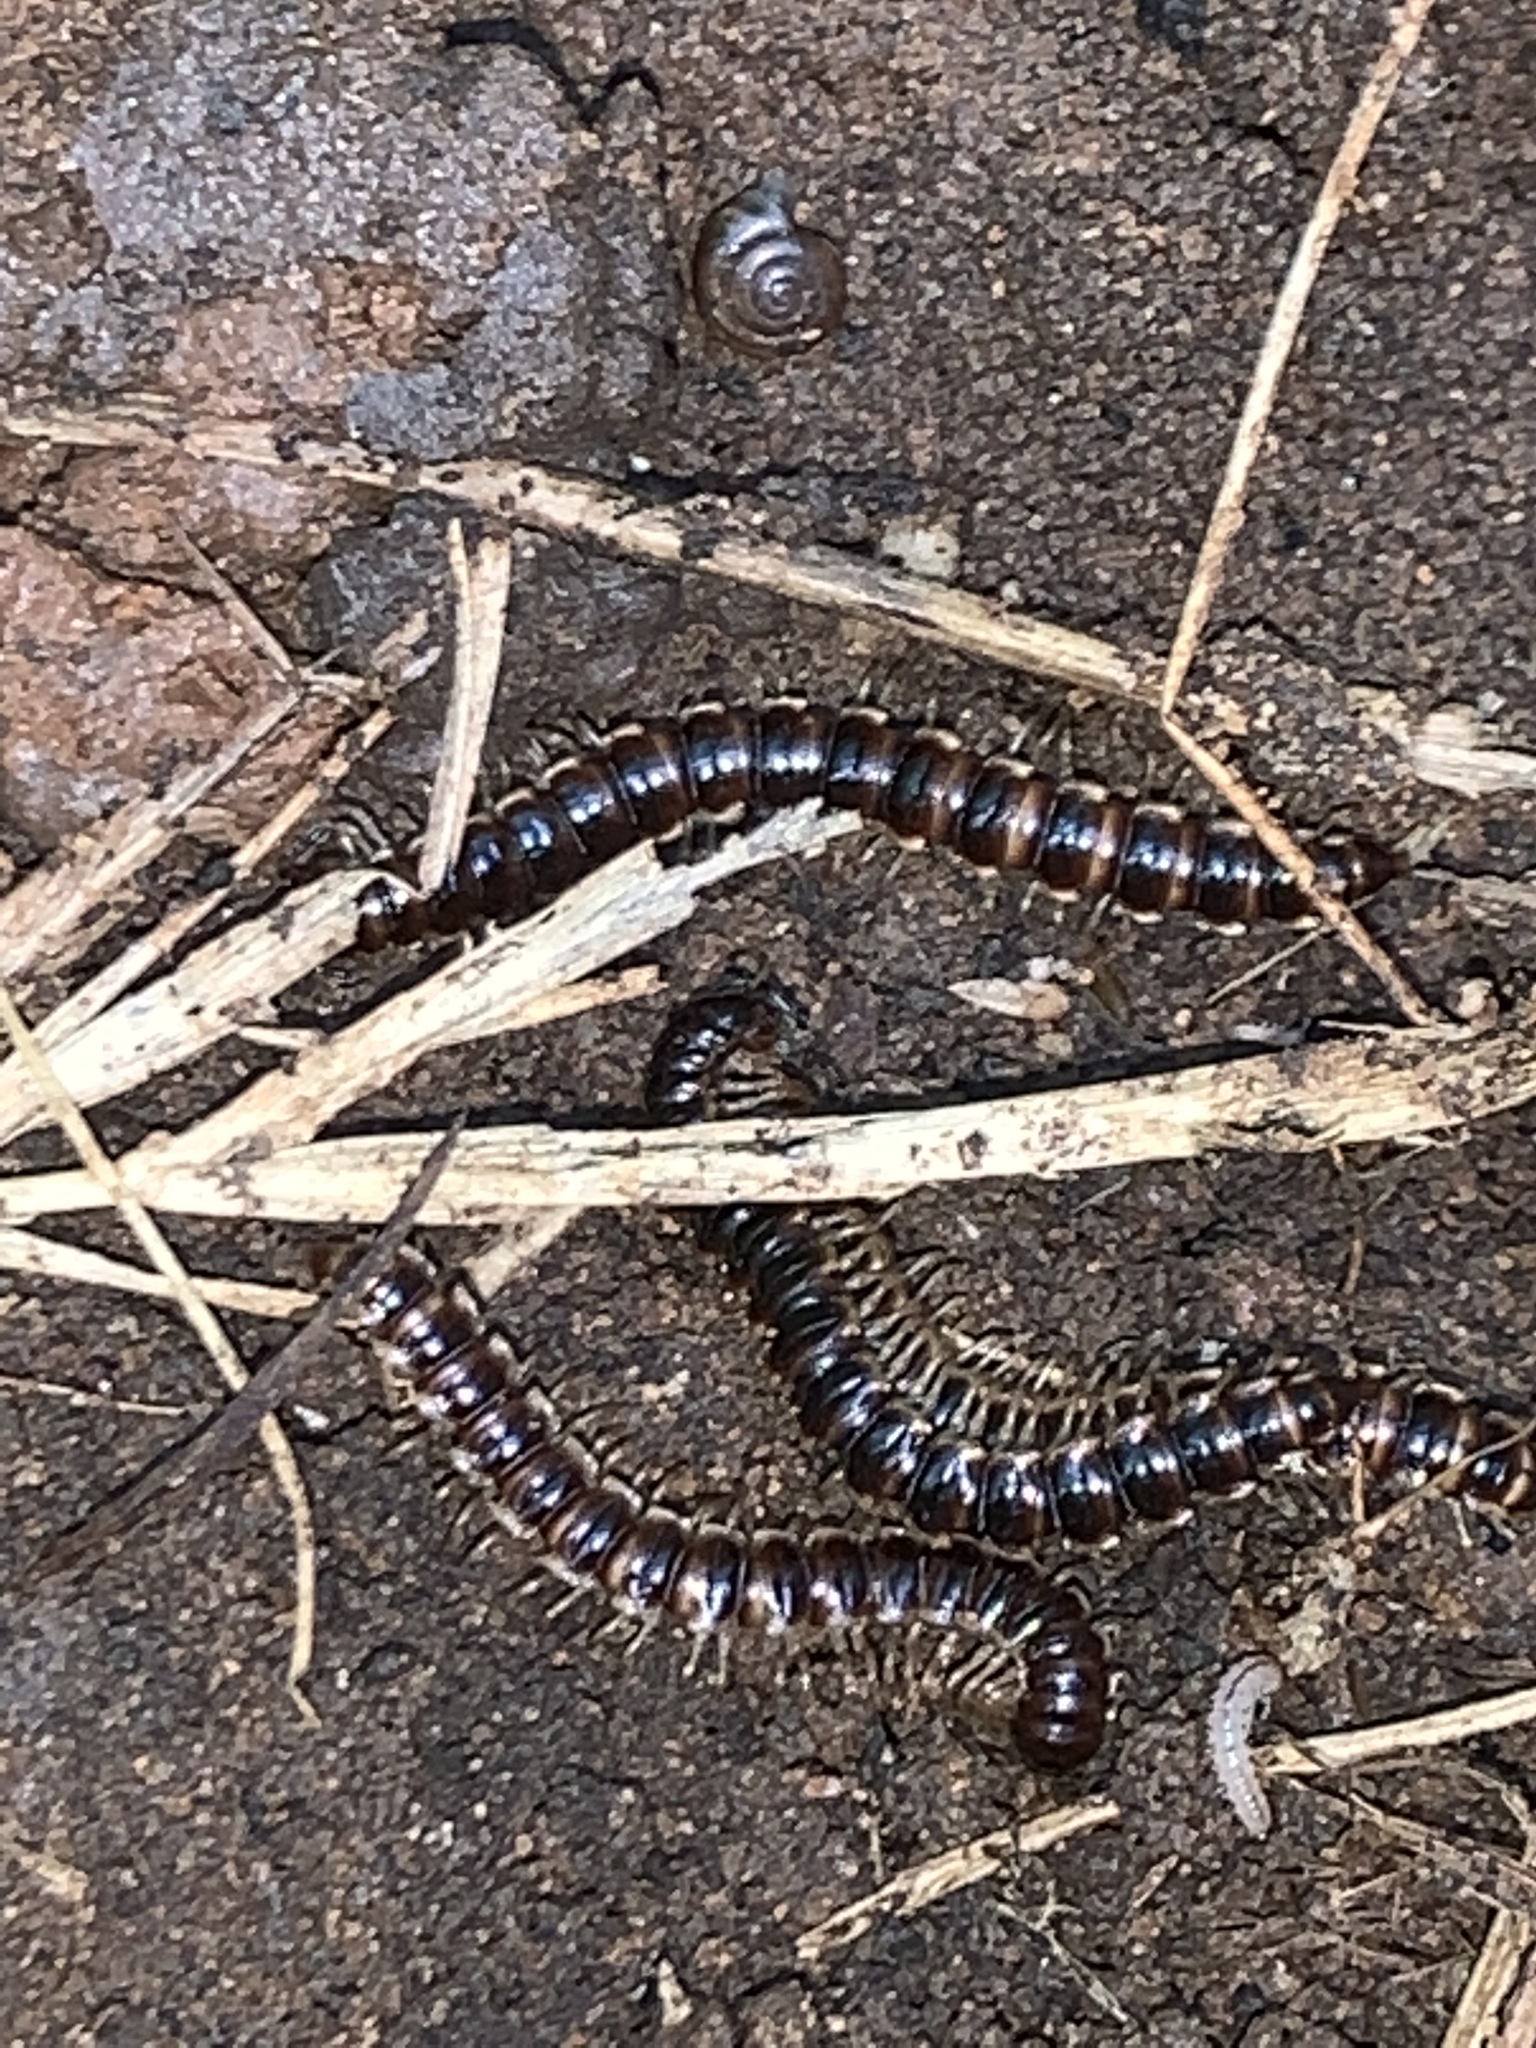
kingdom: Animalia
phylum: Arthropoda
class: Diplopoda
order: Polydesmida
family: Paradoxosomatidae
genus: Oxidus
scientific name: Oxidus gracilis
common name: Greenhouse millipede
